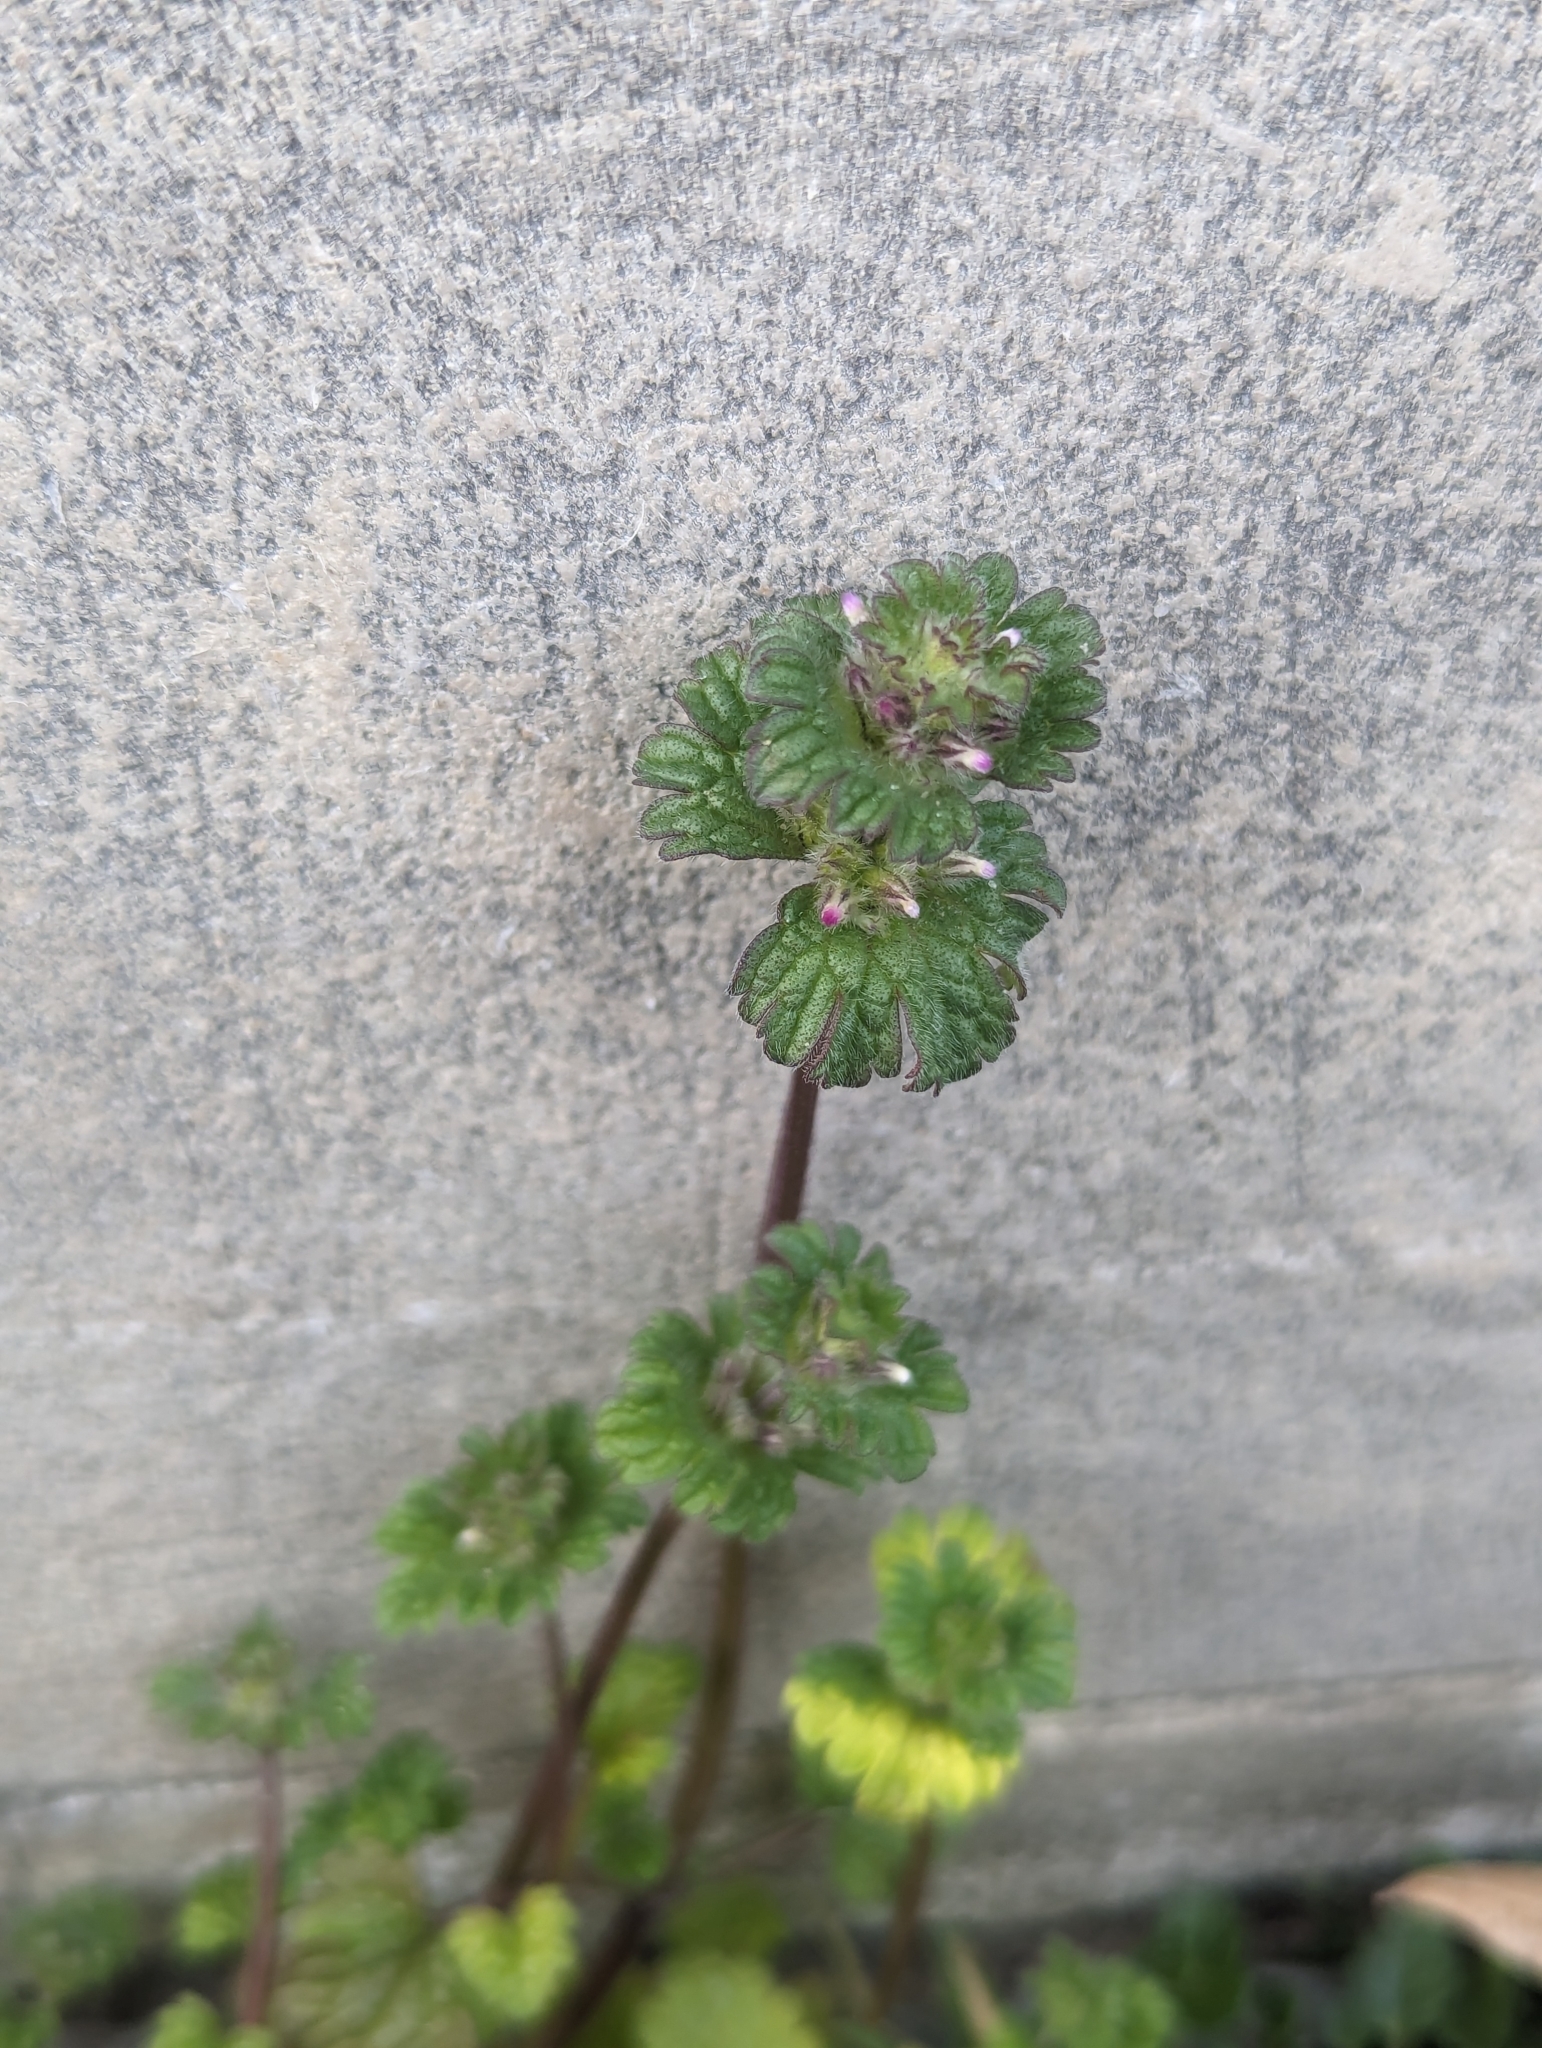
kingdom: Plantae
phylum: Tracheophyta
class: Magnoliopsida
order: Lamiales
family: Lamiaceae
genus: Lamium
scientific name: Lamium amplexicaule
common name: Henbit dead-nettle
